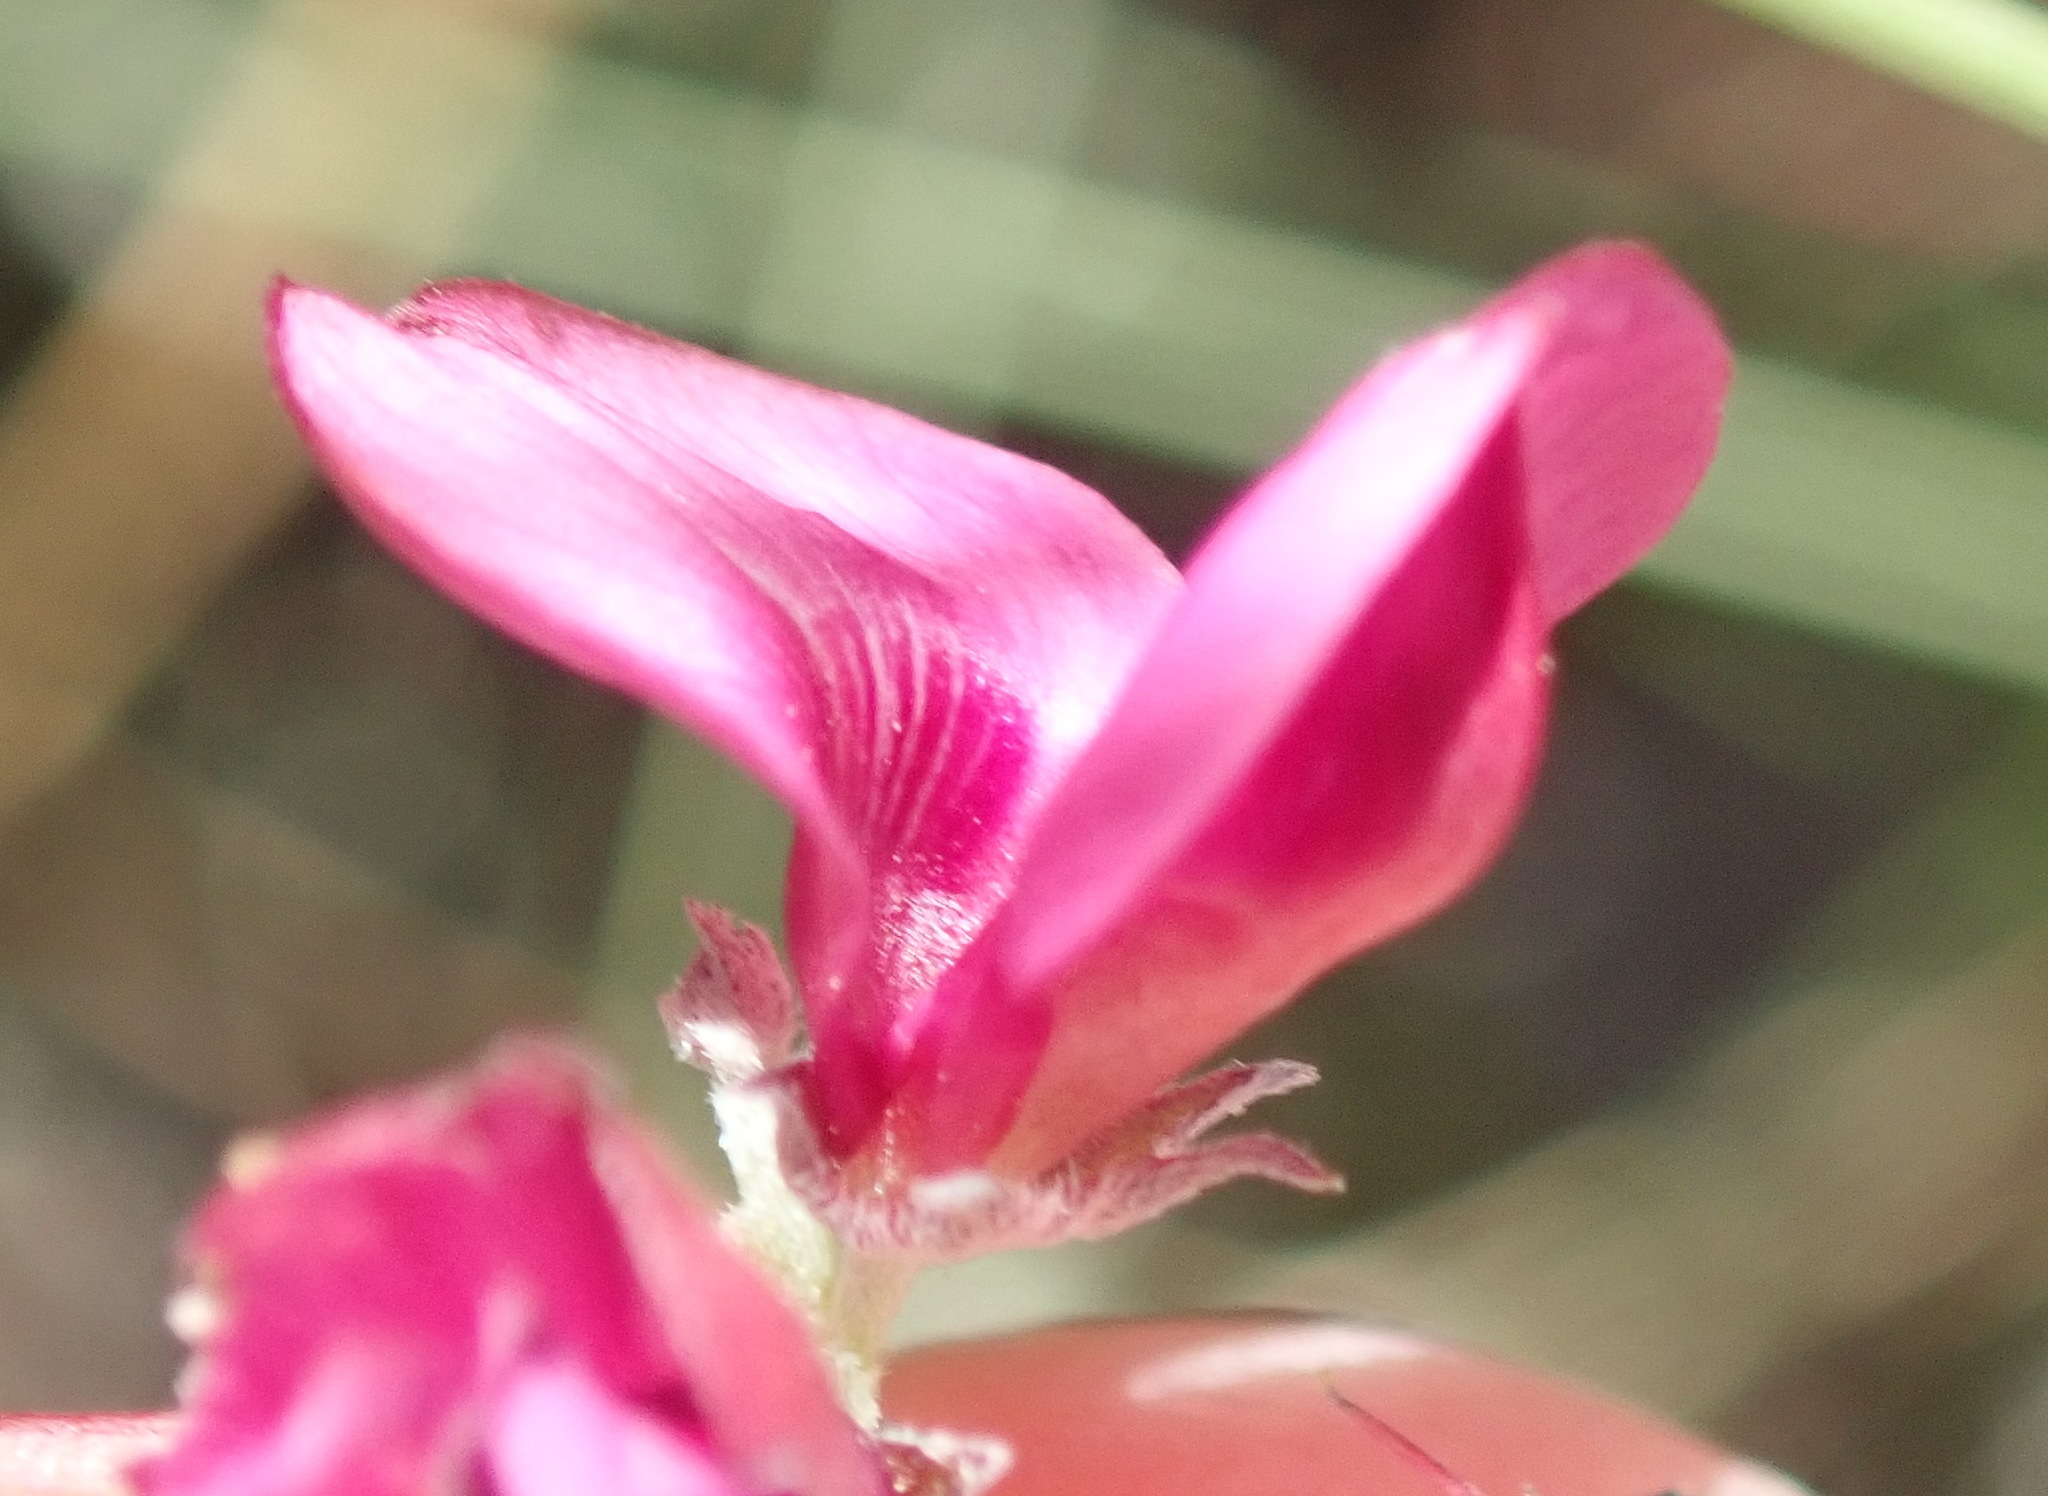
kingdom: Plantae
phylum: Tracheophyta
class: Magnoliopsida
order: Fabales
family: Fabaceae
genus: Indigofera
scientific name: Indigofera meyeriana
